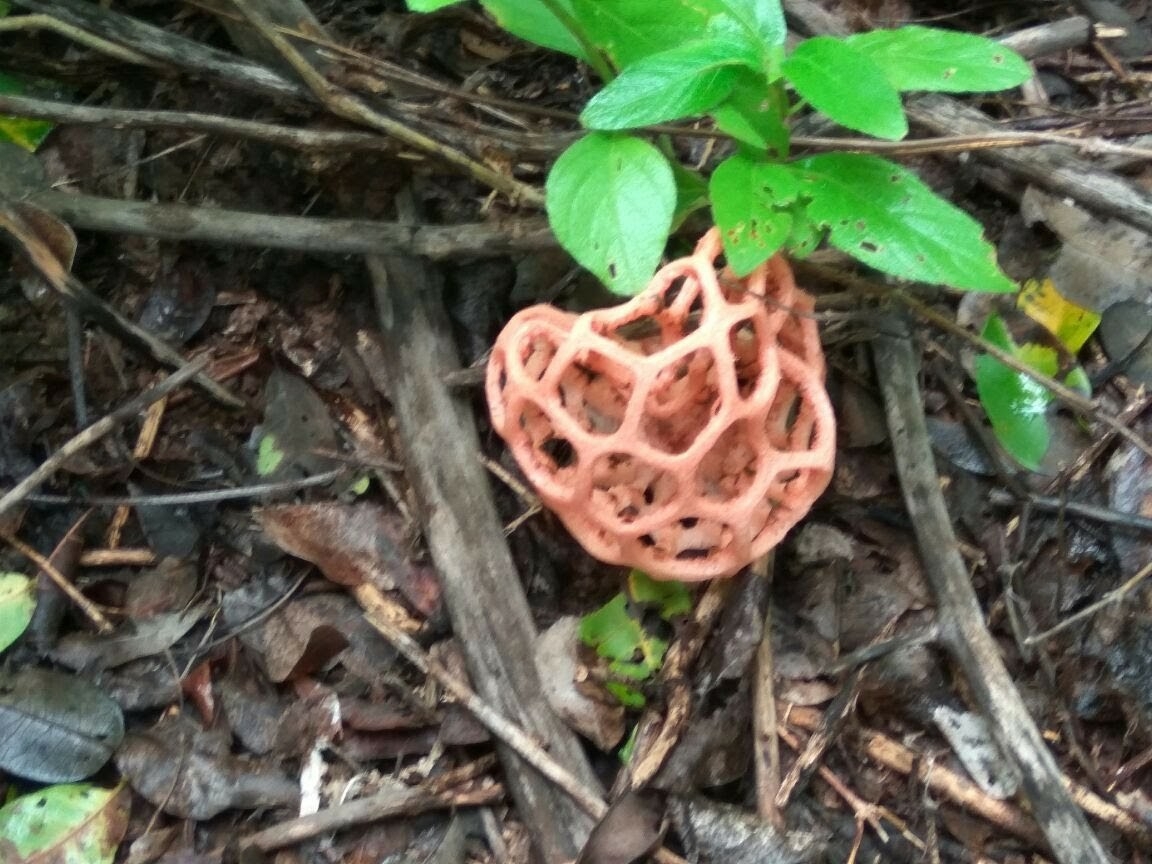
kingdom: Fungi
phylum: Basidiomycota
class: Agaricomycetes
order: Phallales
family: Phallaceae
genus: Clathrus
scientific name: Clathrus natalensis
